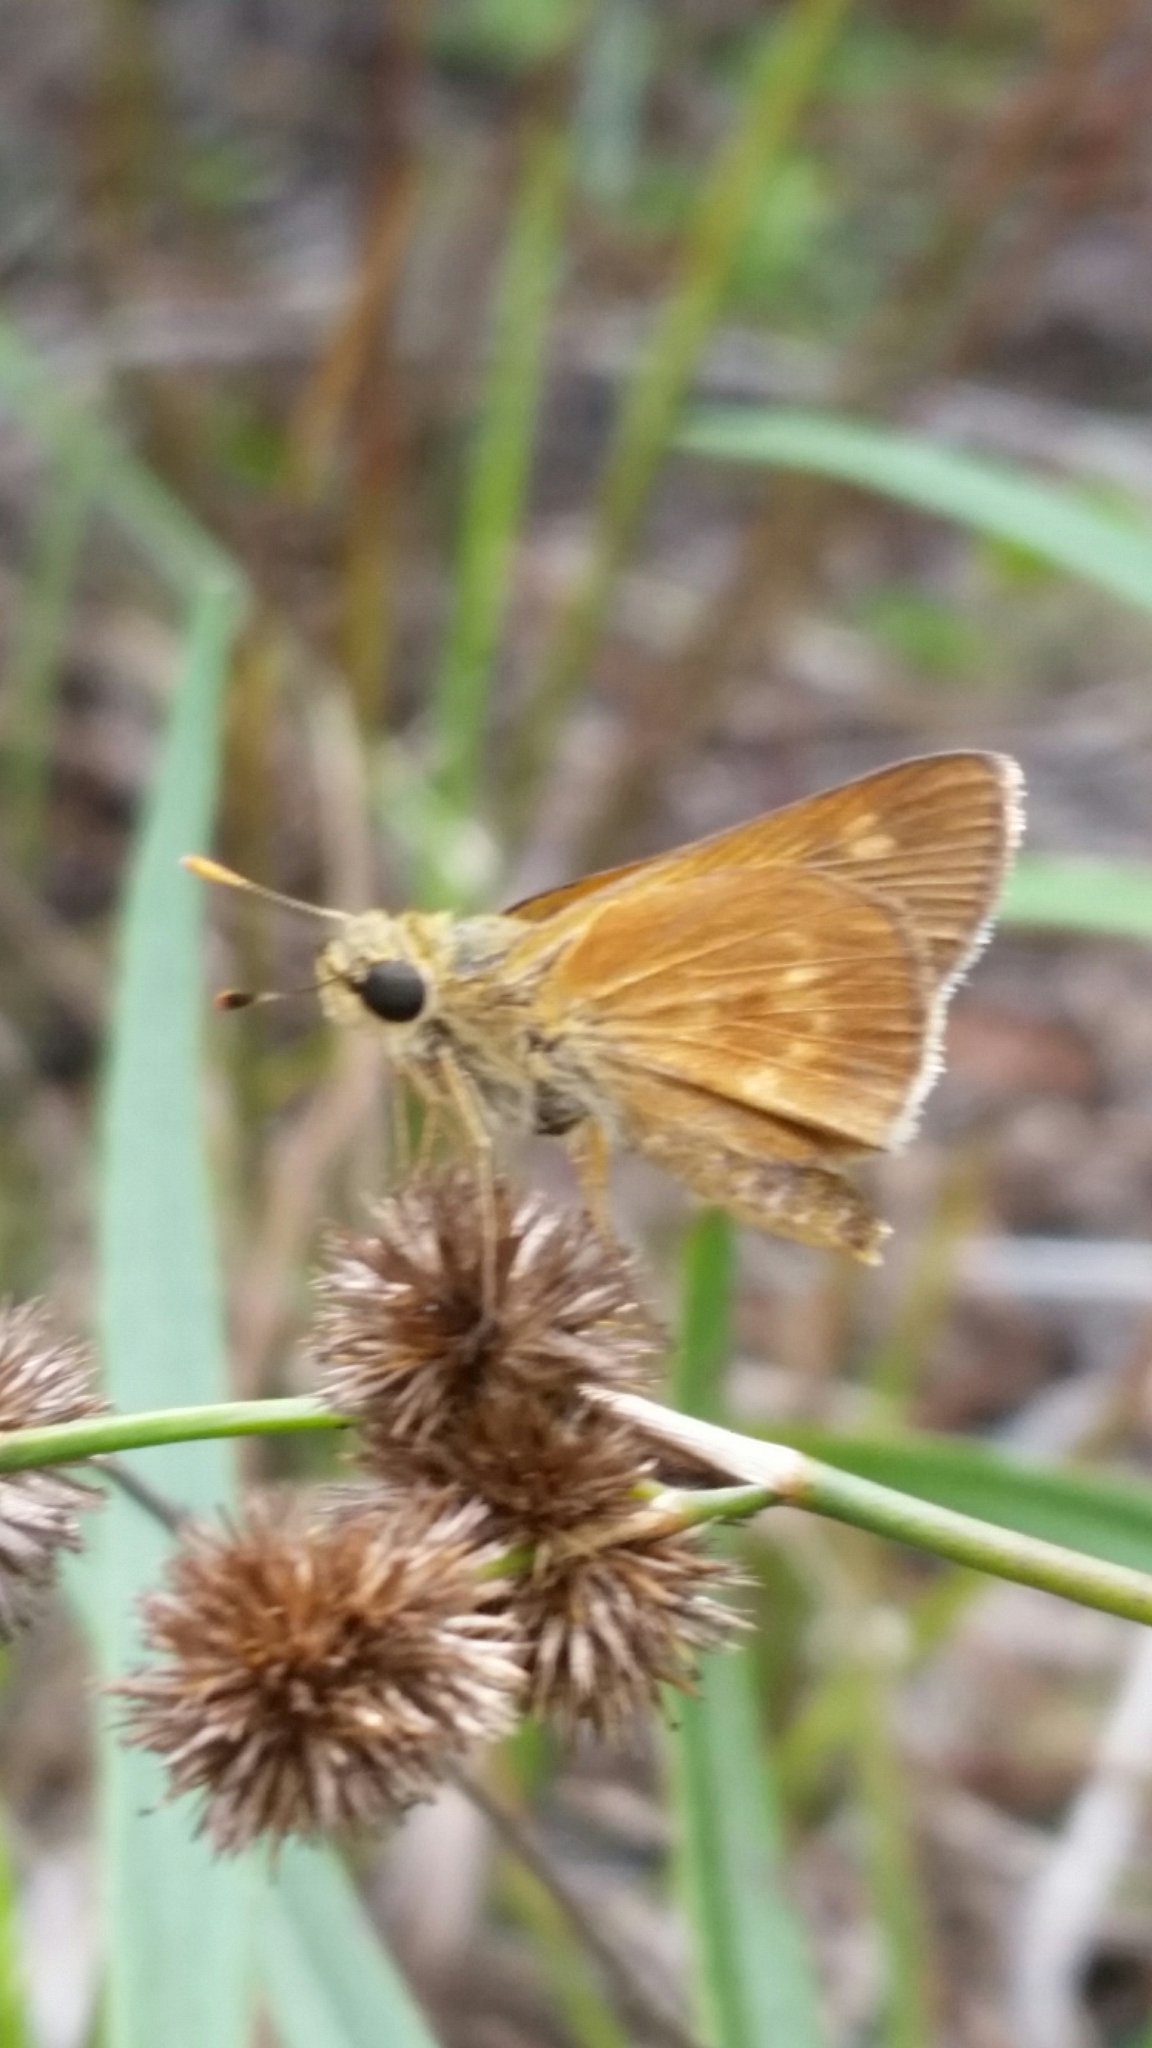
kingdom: Animalia
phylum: Arthropoda
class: Insecta
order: Lepidoptera
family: Hesperiidae
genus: Polites
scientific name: Polites otho
